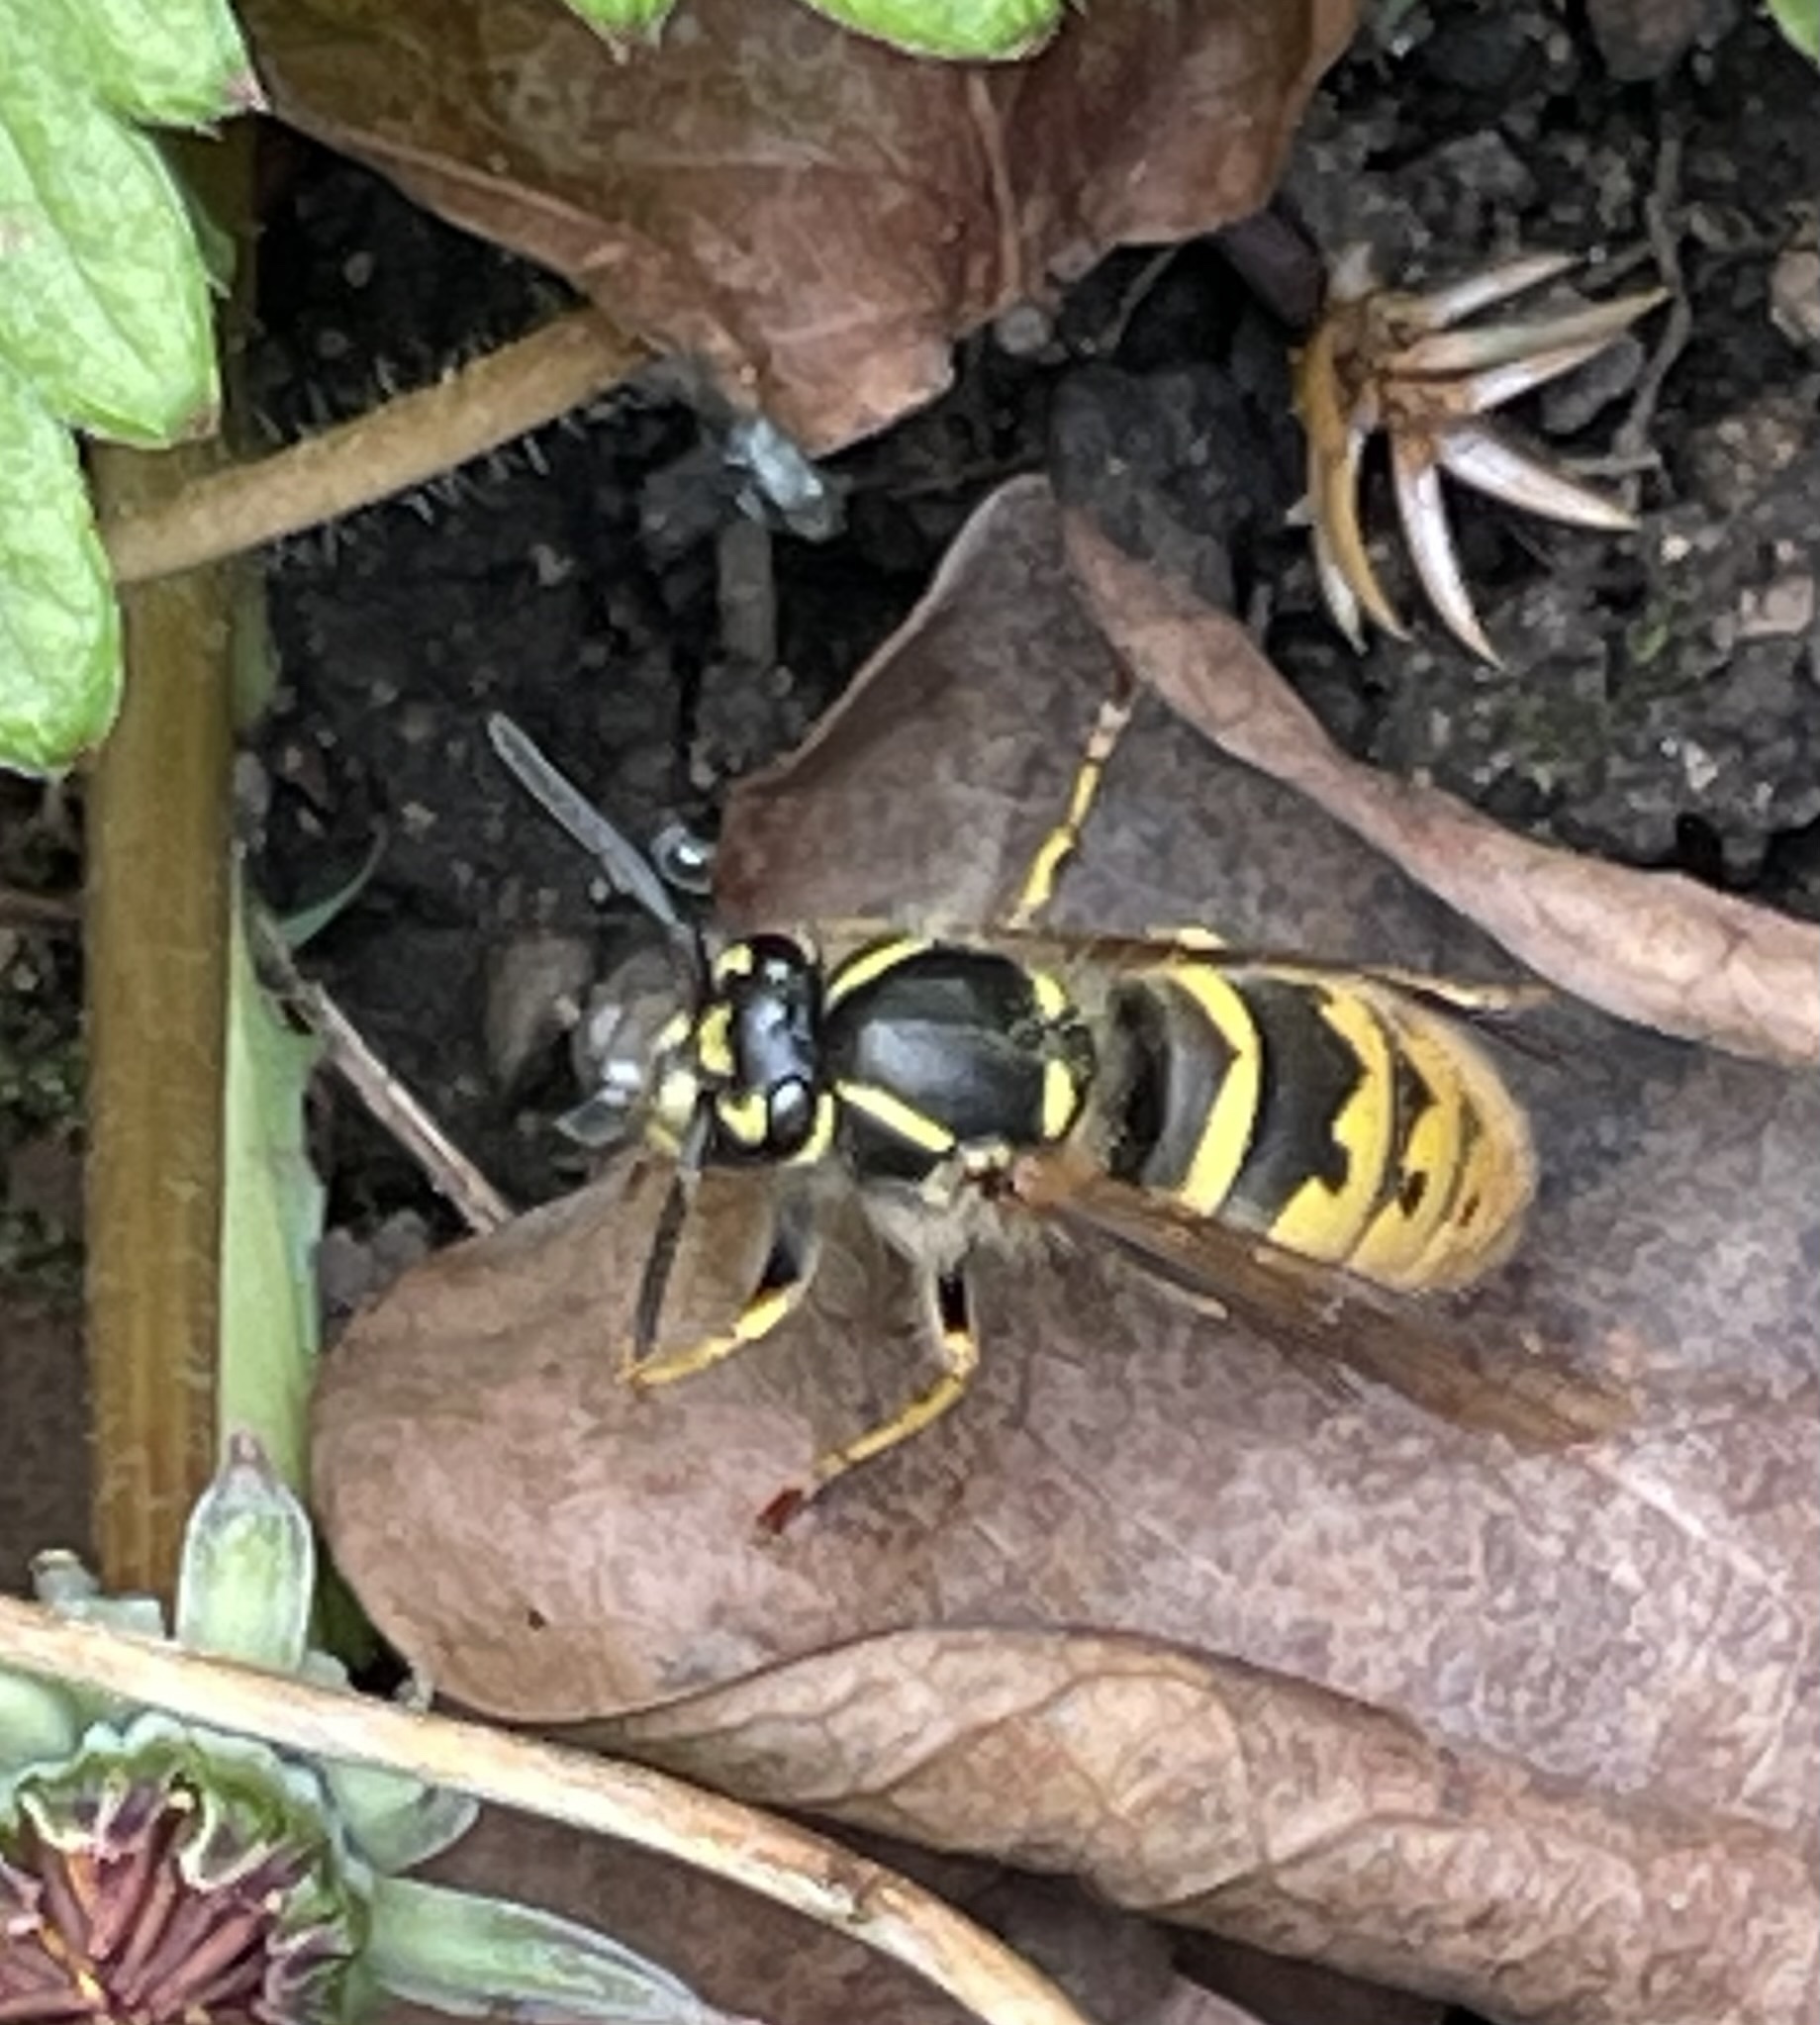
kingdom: Animalia
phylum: Arthropoda
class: Insecta
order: Hymenoptera
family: Vespidae
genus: Vespula
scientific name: Vespula vulgaris
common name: Common wasp
